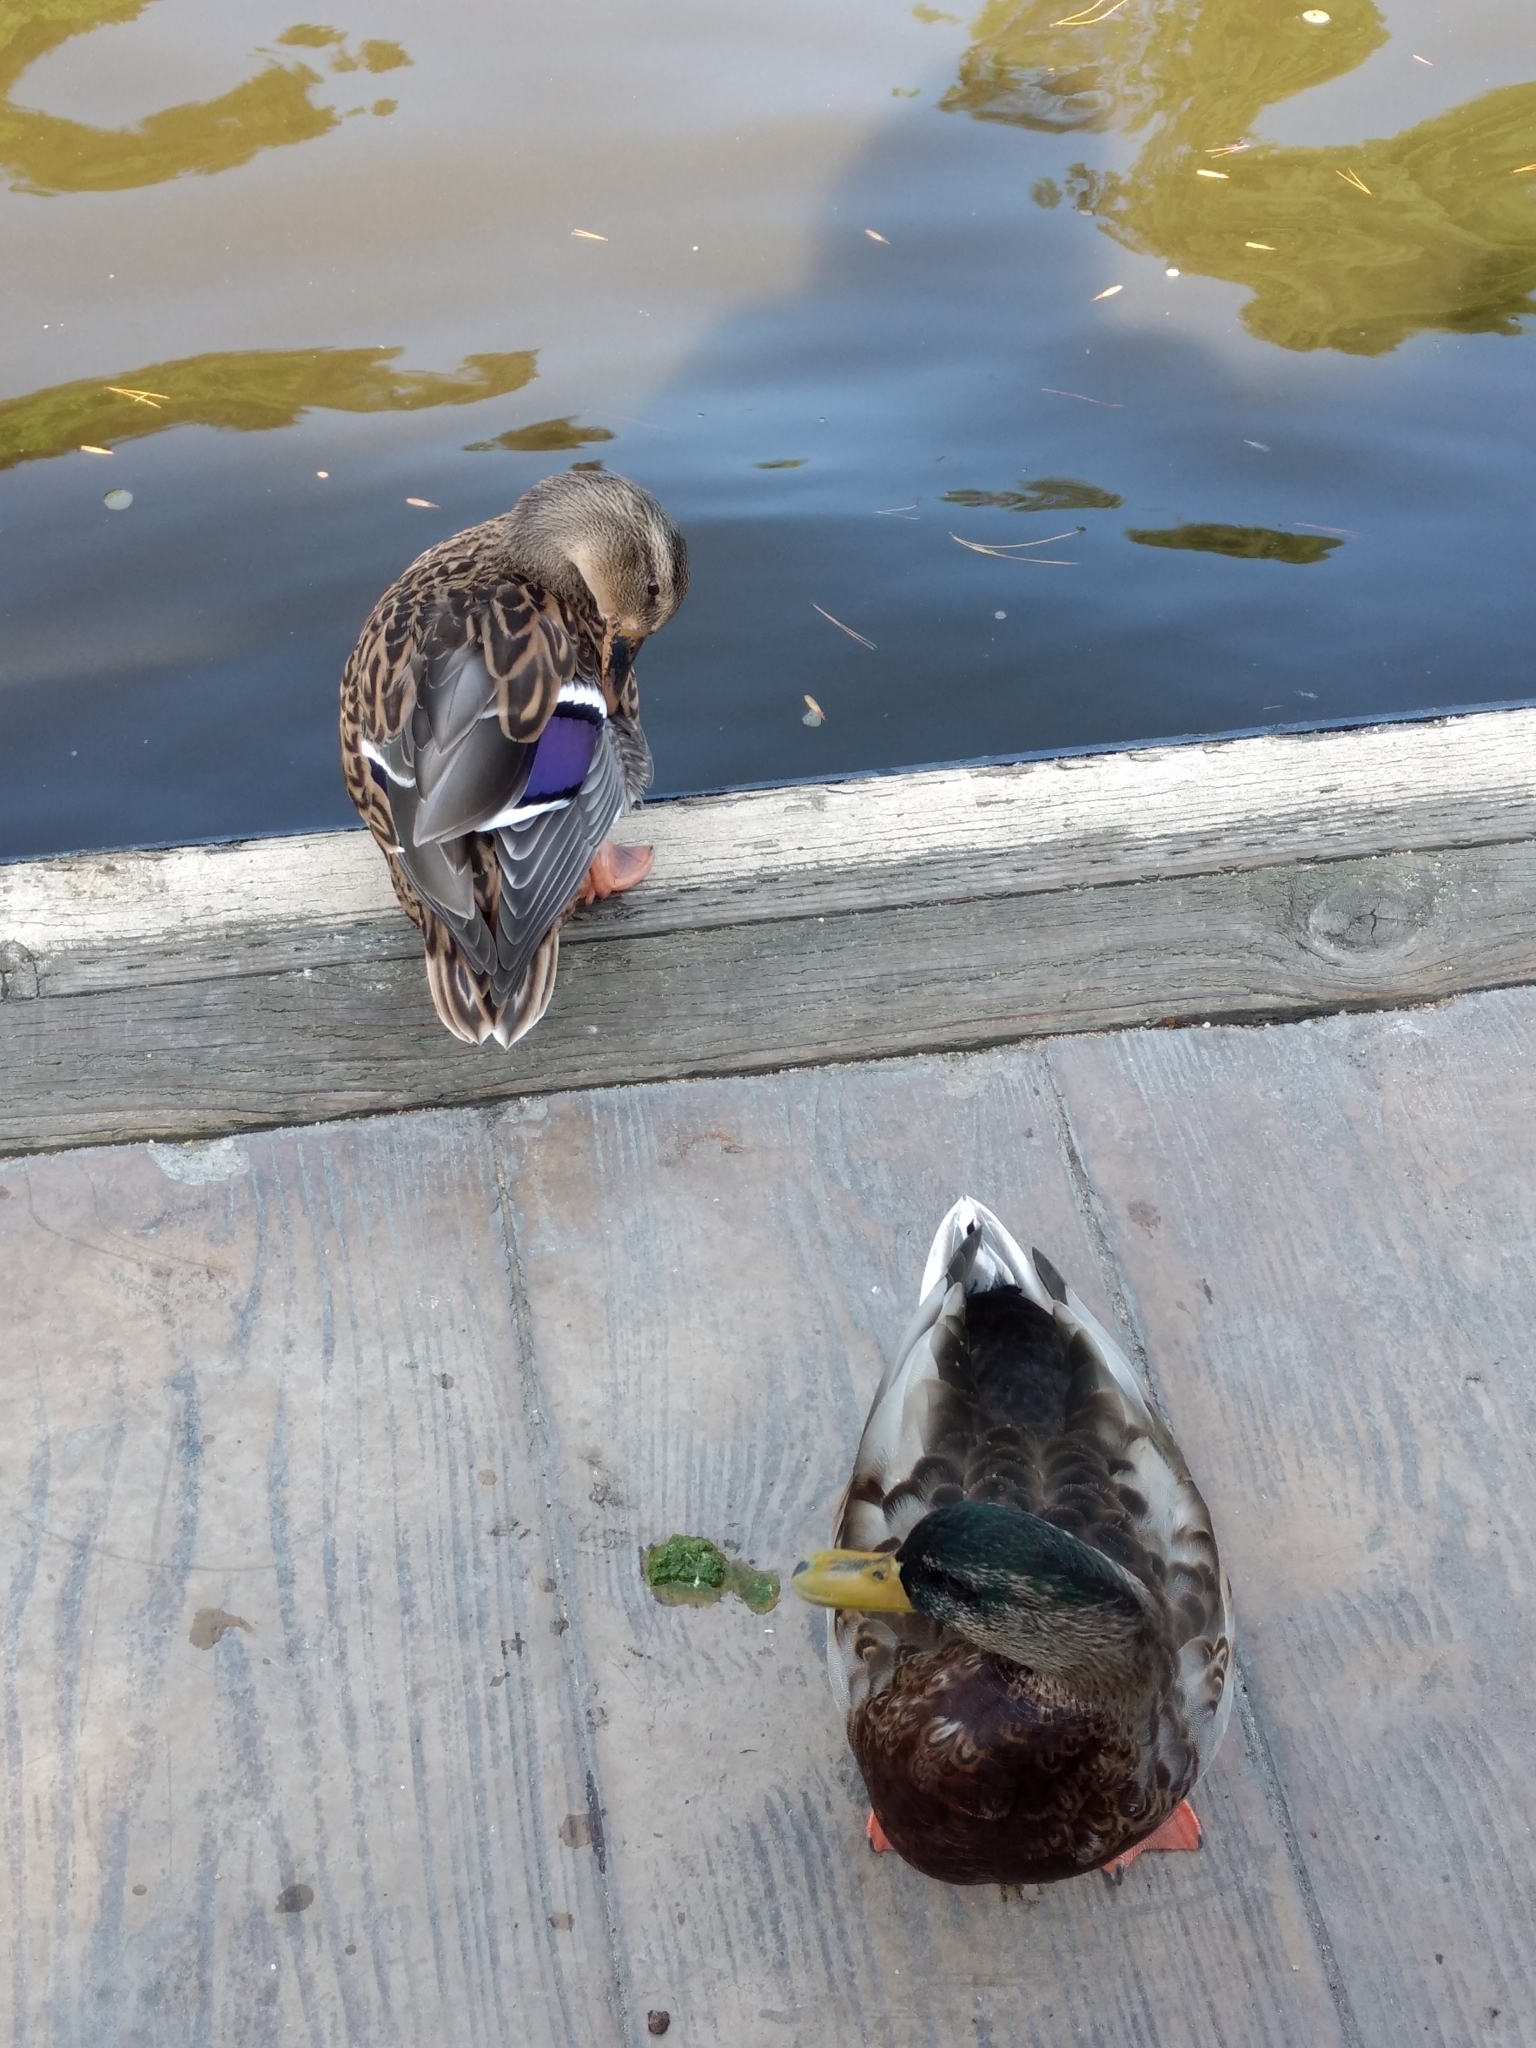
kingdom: Animalia
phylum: Chordata
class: Aves
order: Anseriformes
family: Anatidae
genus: Anas
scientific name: Anas platyrhynchos
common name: Mallard
